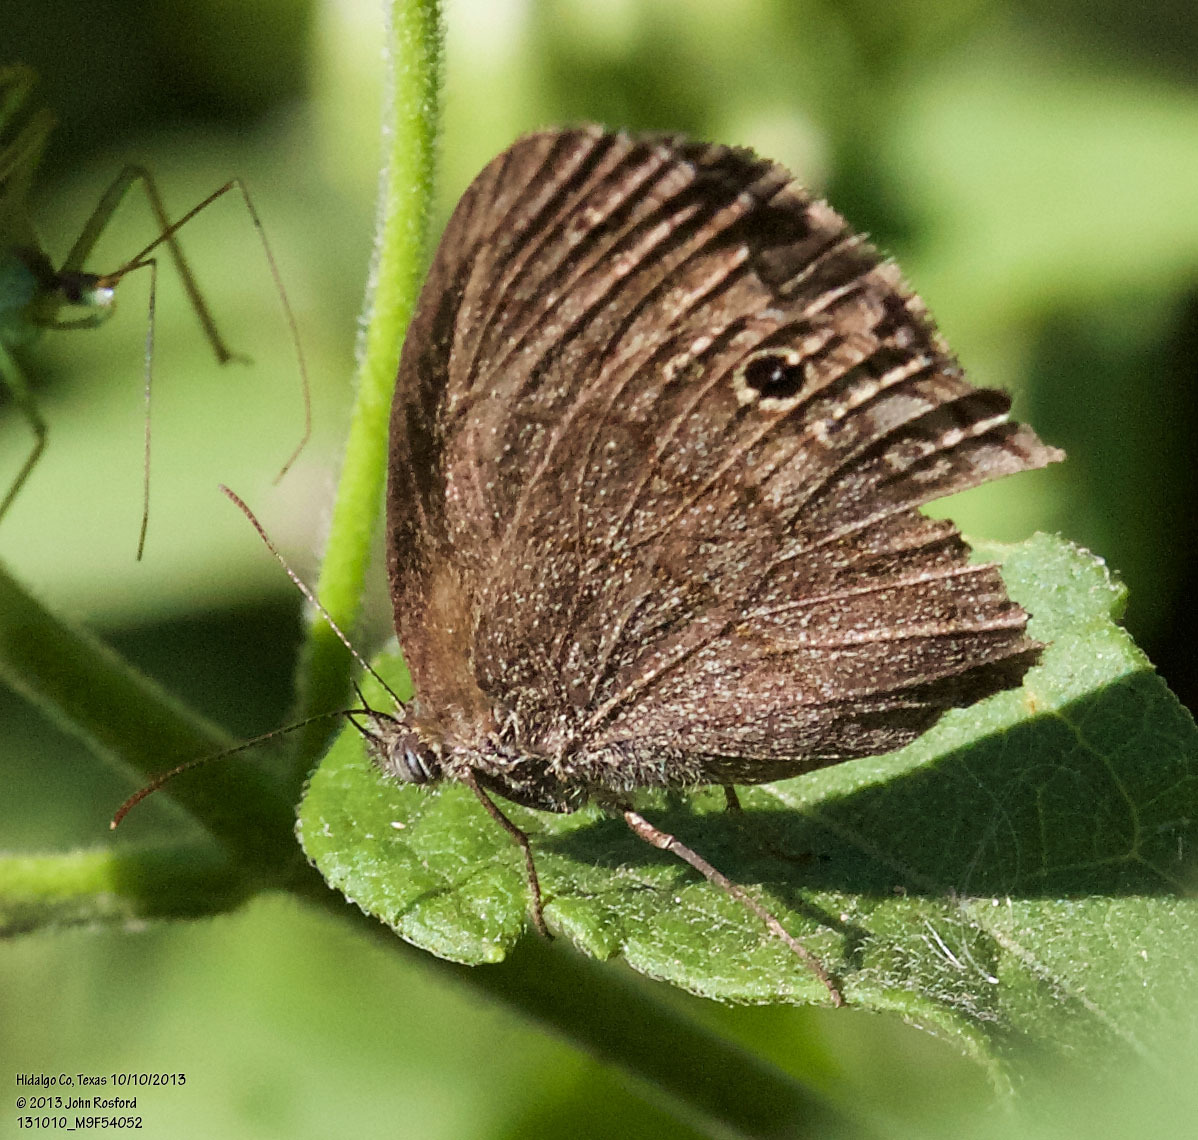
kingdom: Animalia
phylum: Arthropoda
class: Insecta
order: Lepidoptera
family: Nymphalidae
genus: Hermeuptychia
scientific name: Hermeuptychia hermybius
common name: South texas satyr
